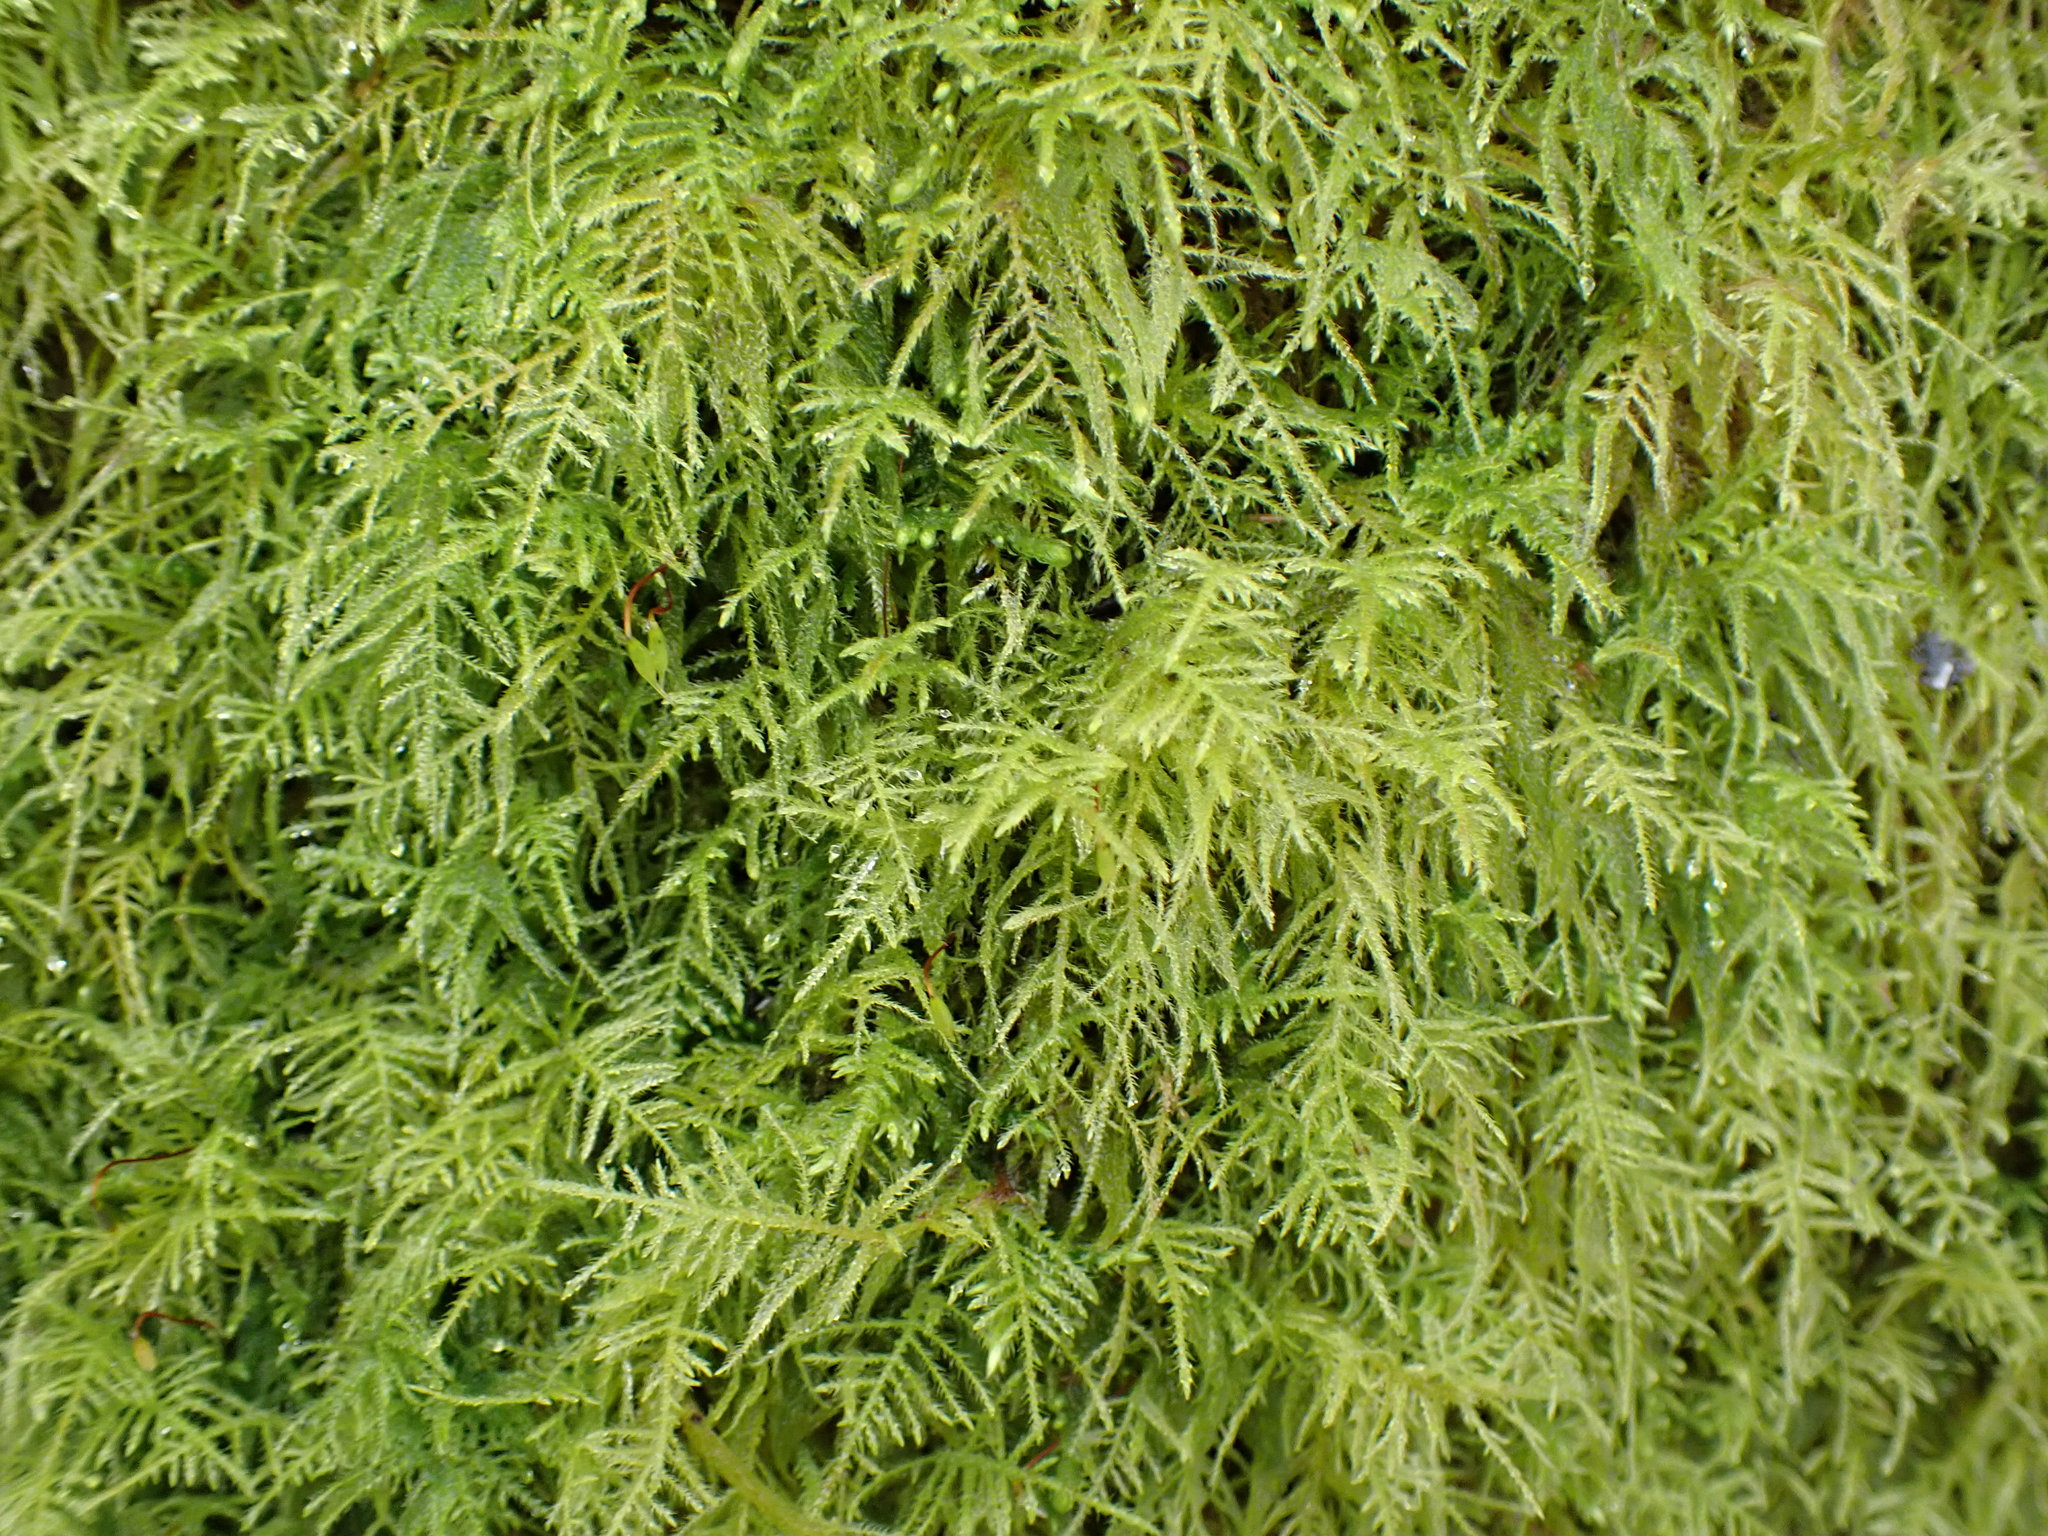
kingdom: Plantae
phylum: Bryophyta
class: Bryopsida
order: Hypnales
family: Brachytheciaceae
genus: Kindbergia
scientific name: Kindbergia praelonga
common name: Slender beaked moss
